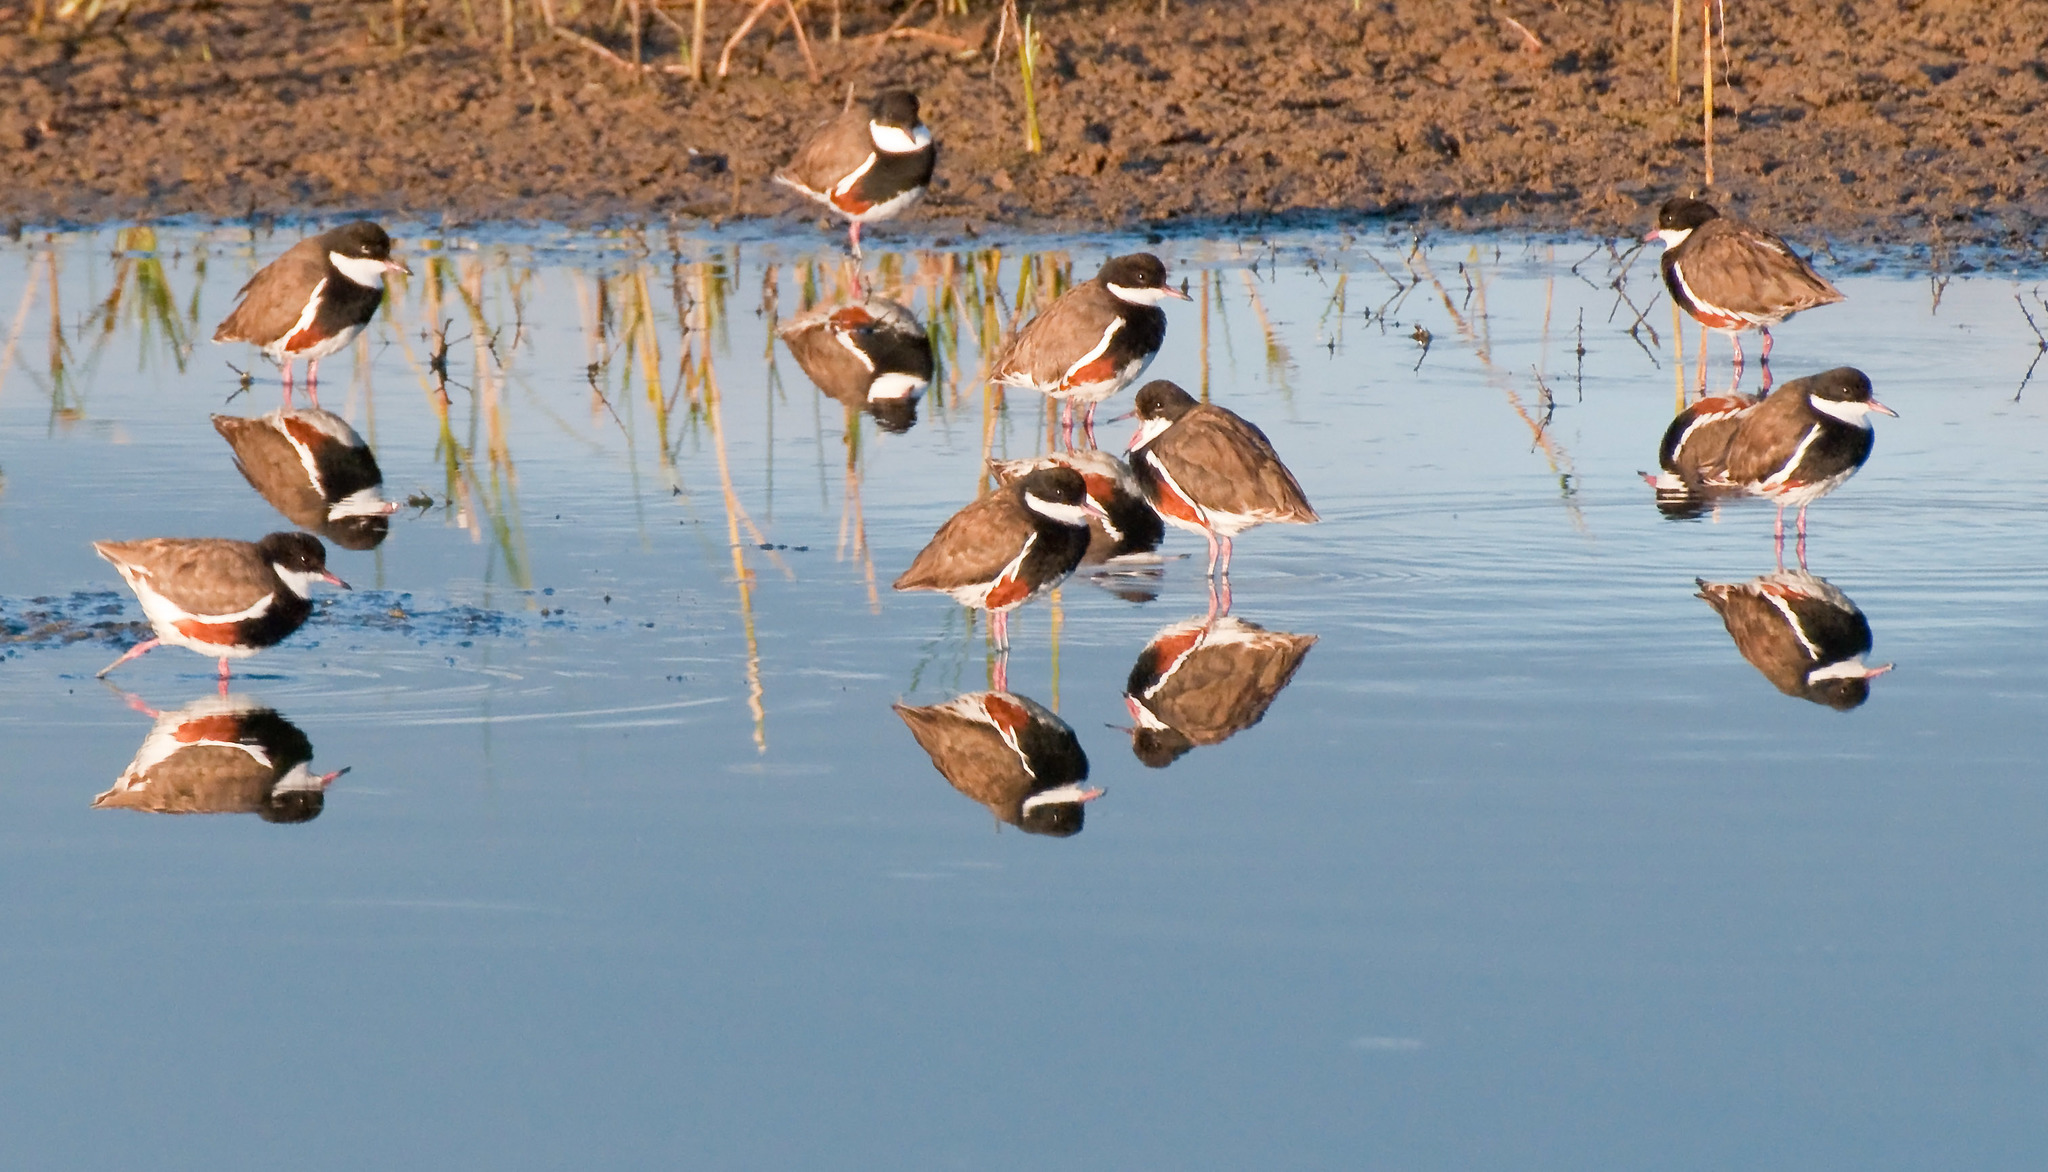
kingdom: Animalia
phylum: Chordata
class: Aves
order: Charadriiformes
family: Charadriidae
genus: Erythrogonys
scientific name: Erythrogonys cinctus
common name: Red-kneed dotterel
